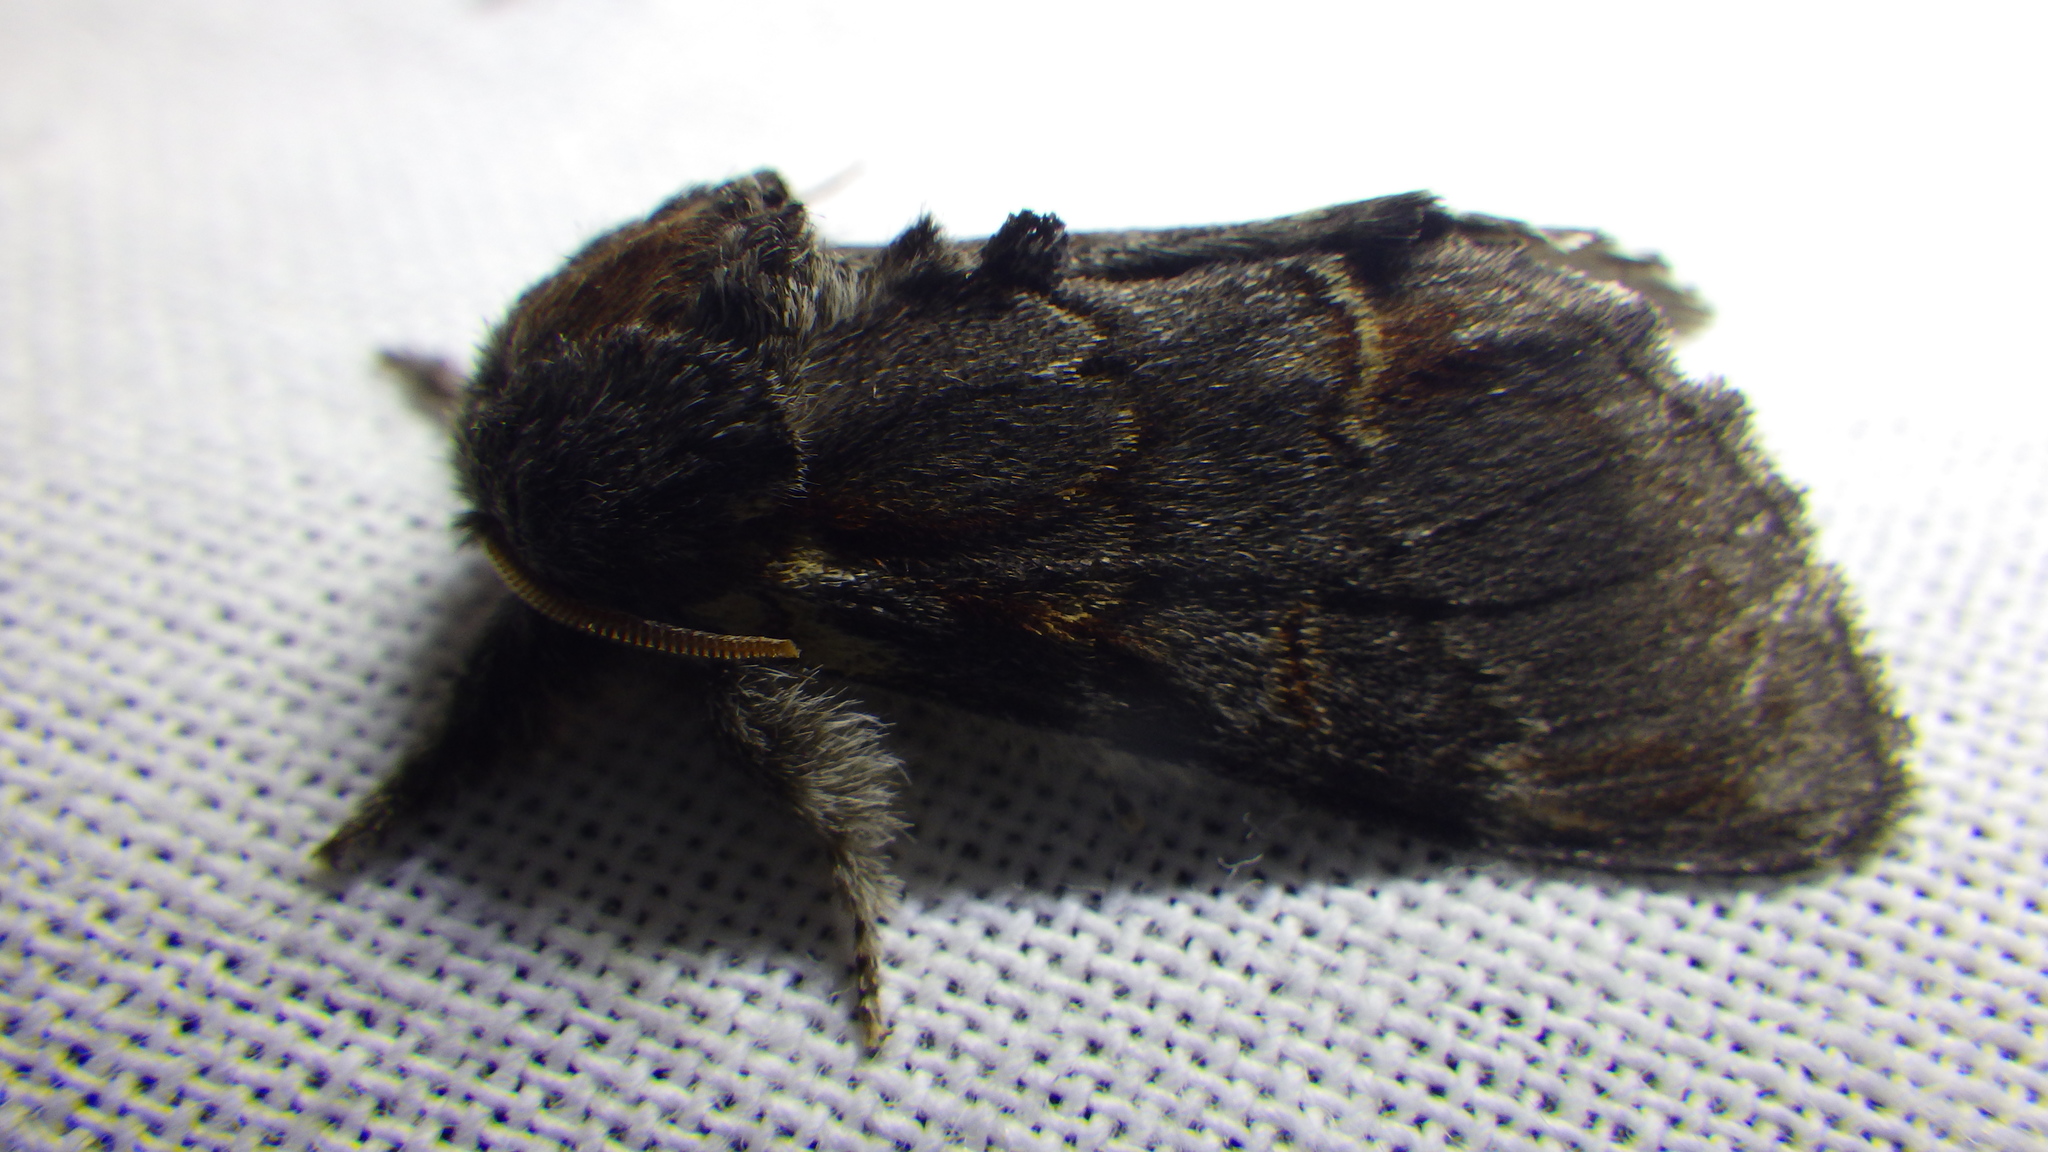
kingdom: Animalia
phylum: Arthropoda
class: Insecta
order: Lepidoptera
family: Notodontidae
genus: Notodonta
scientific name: Notodonta dromedarius
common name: Iron prominent
